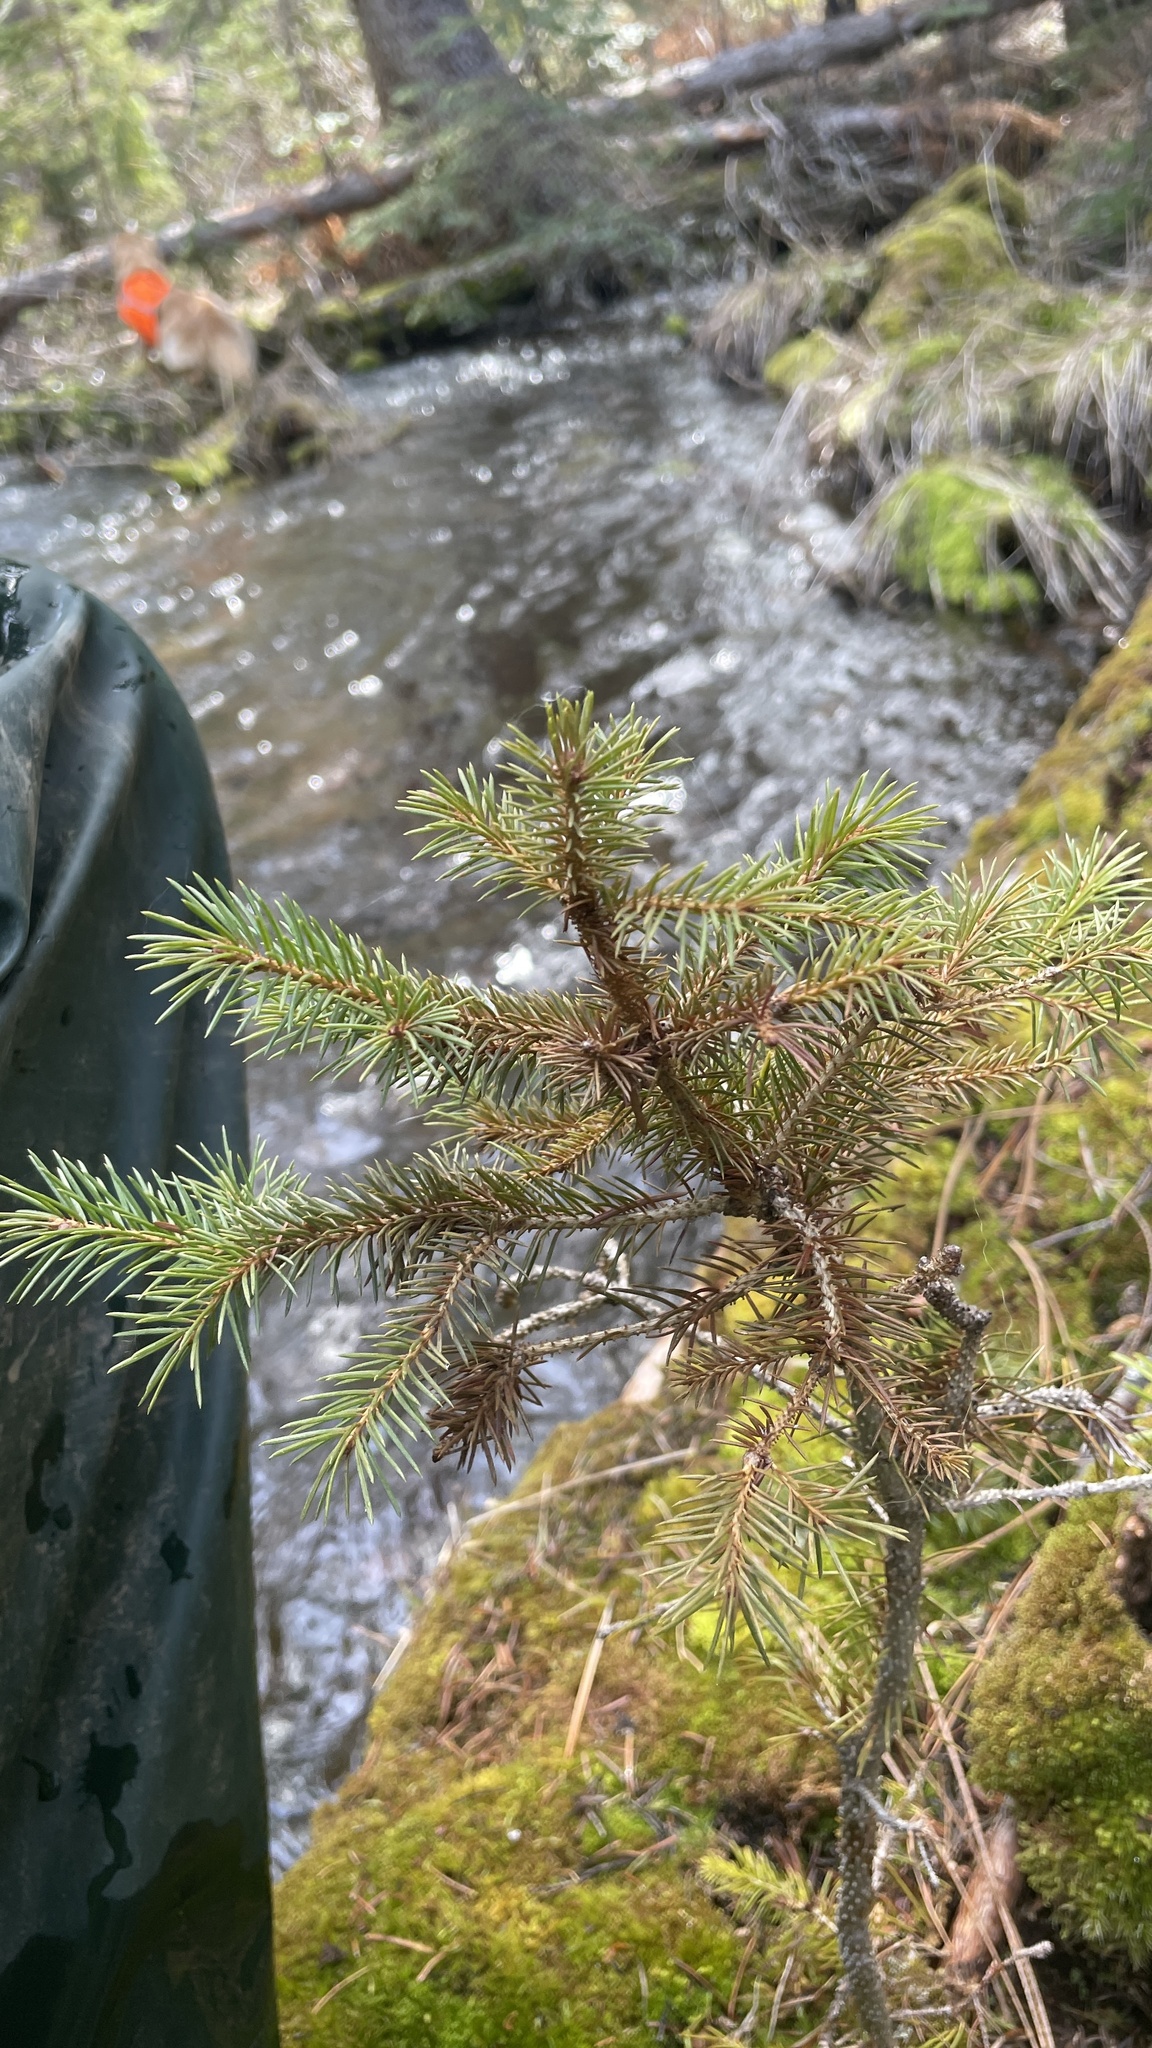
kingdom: Plantae
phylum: Tracheophyta
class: Pinopsida
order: Pinales
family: Pinaceae
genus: Picea
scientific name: Picea engelmannii
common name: Engelmann spruce
